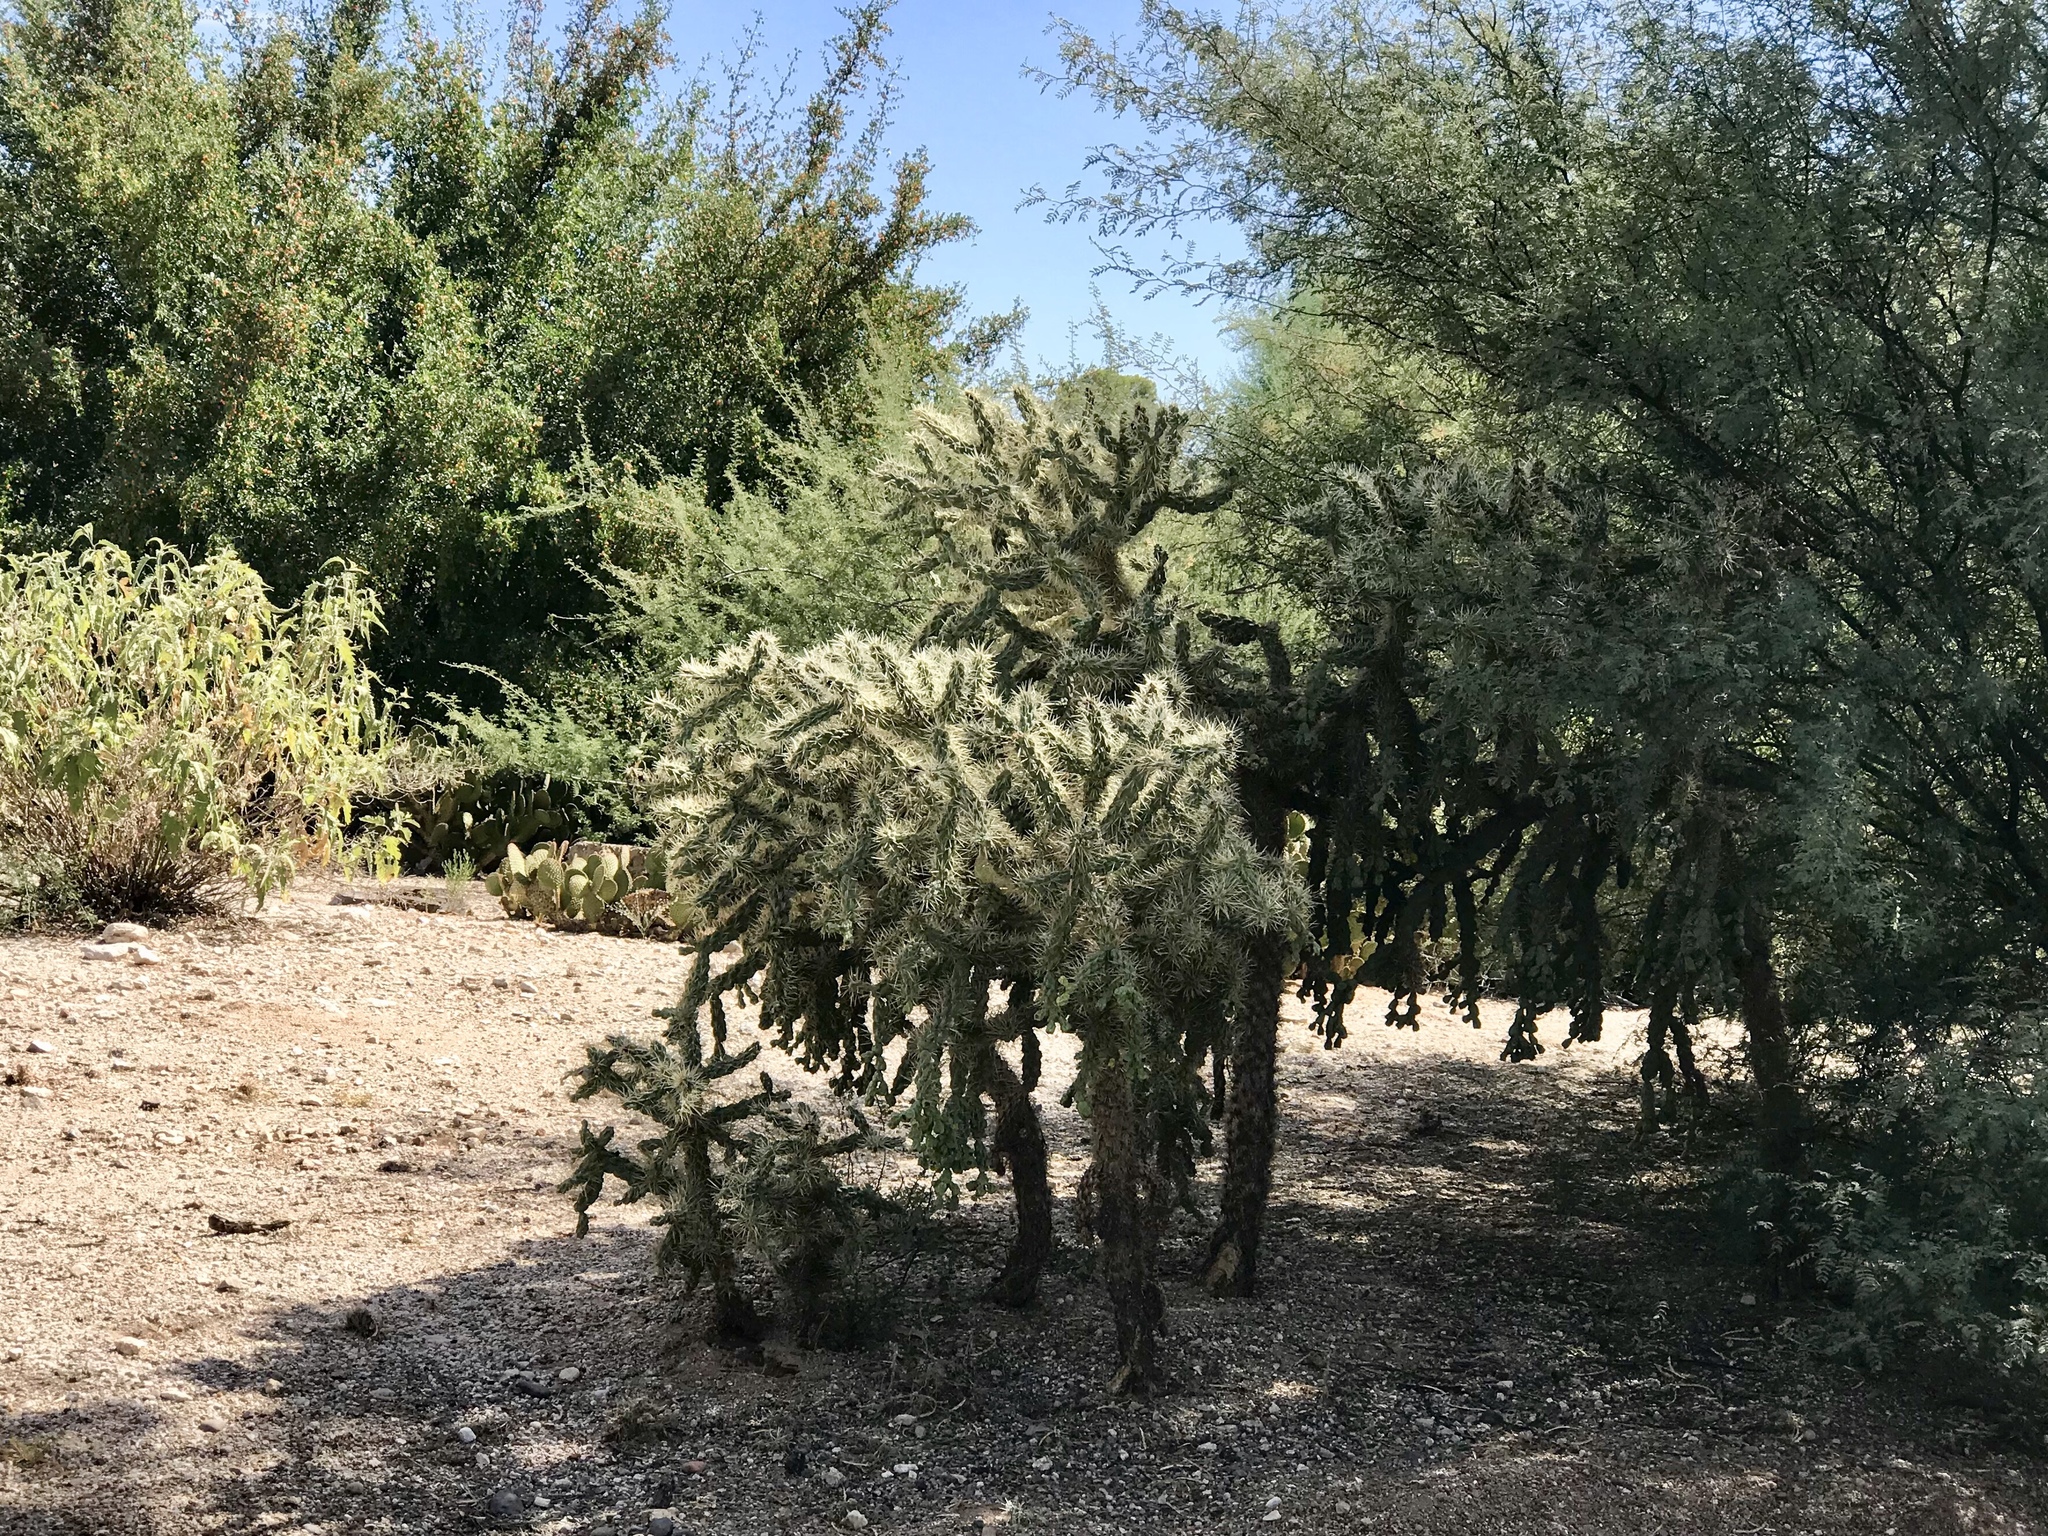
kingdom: Plantae
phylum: Tracheophyta
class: Magnoliopsida
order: Caryophyllales
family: Cactaceae
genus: Cylindropuntia
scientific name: Cylindropuntia fulgida
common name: Jumping cholla
